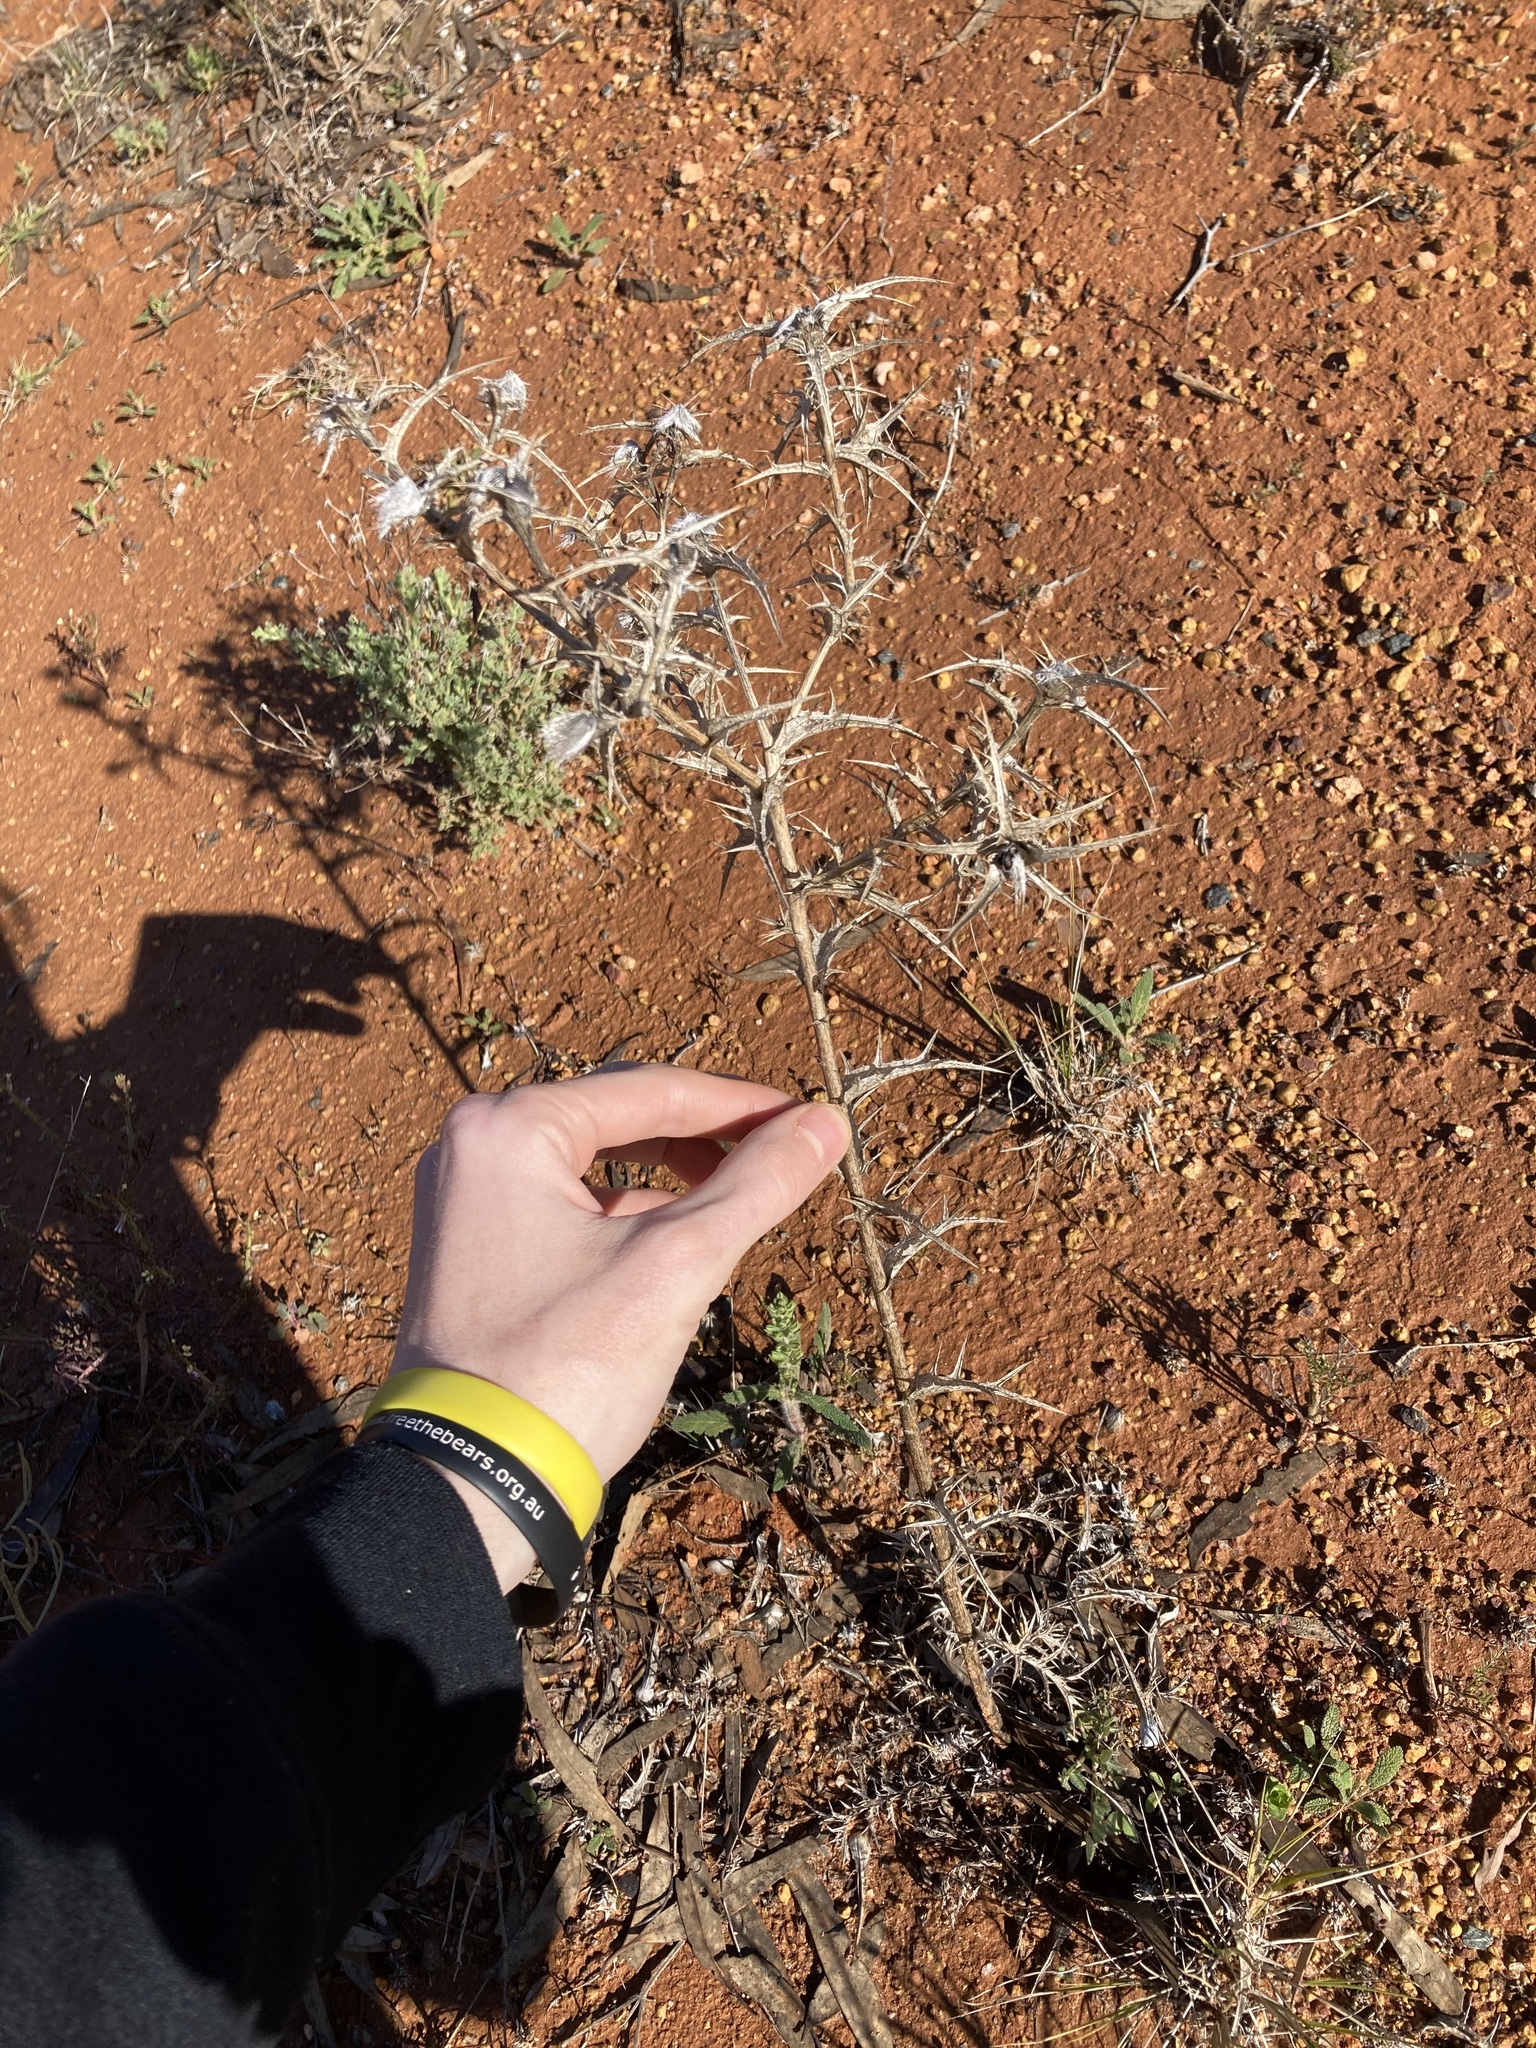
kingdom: Plantae
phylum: Tracheophyta
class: Magnoliopsida
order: Asterales
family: Asteraceae
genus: Carthamus
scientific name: Carthamus lanatus
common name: Downy safflower
